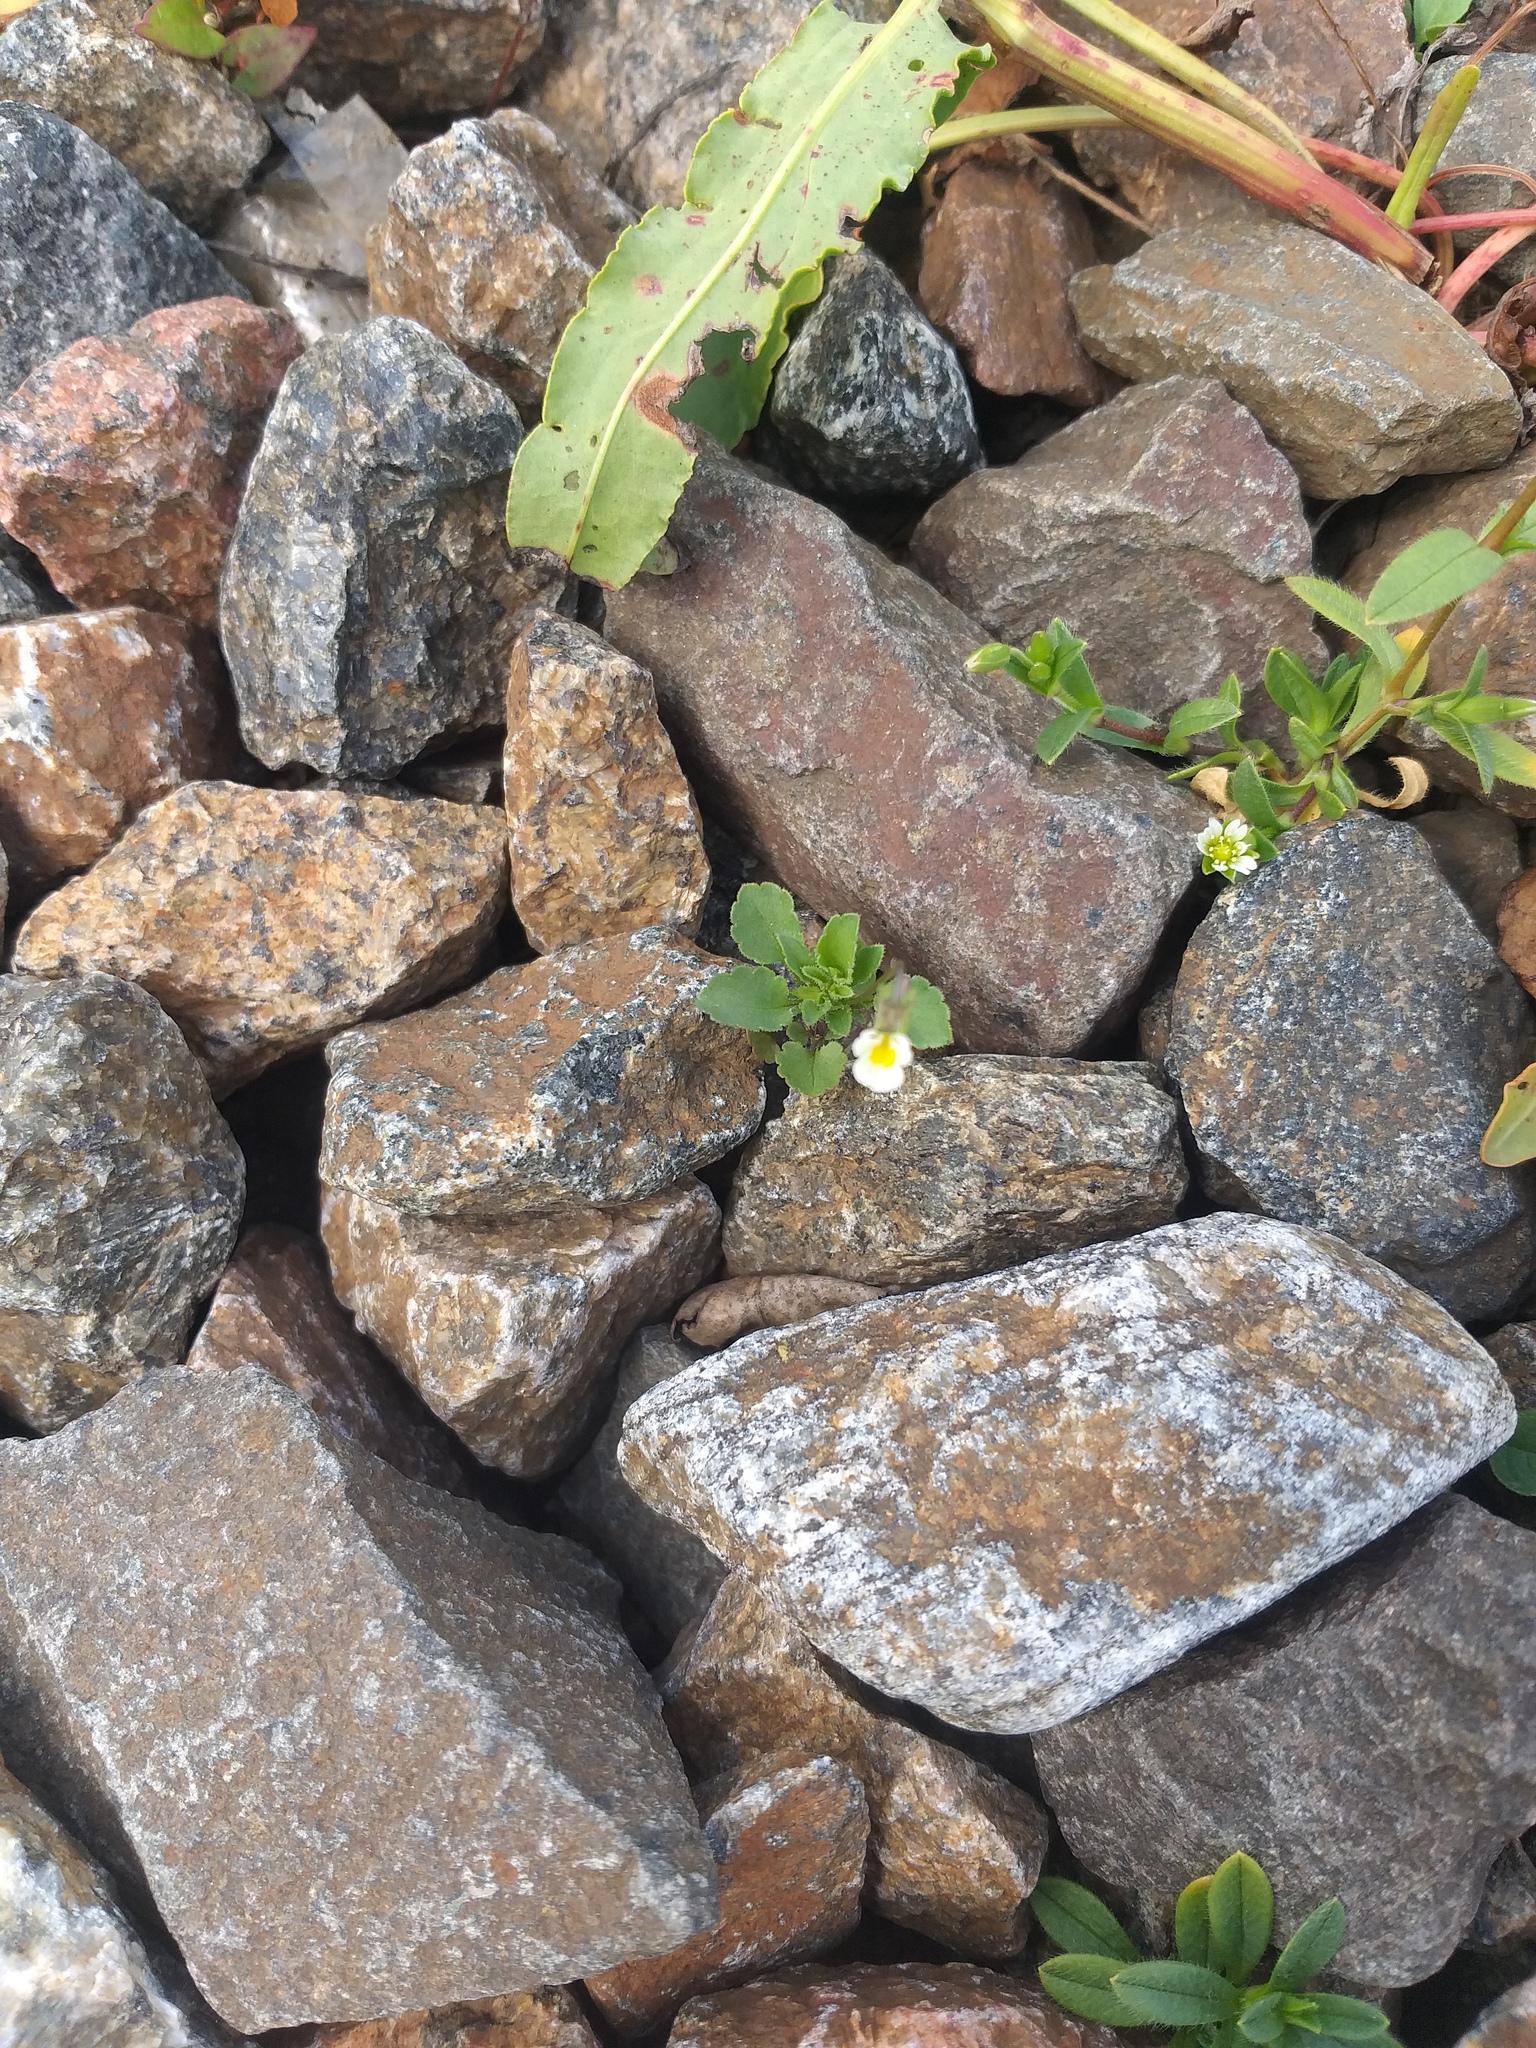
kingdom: Plantae
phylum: Tracheophyta
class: Magnoliopsida
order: Malpighiales
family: Violaceae
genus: Viola
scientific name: Viola arvensis
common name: Field pansy
